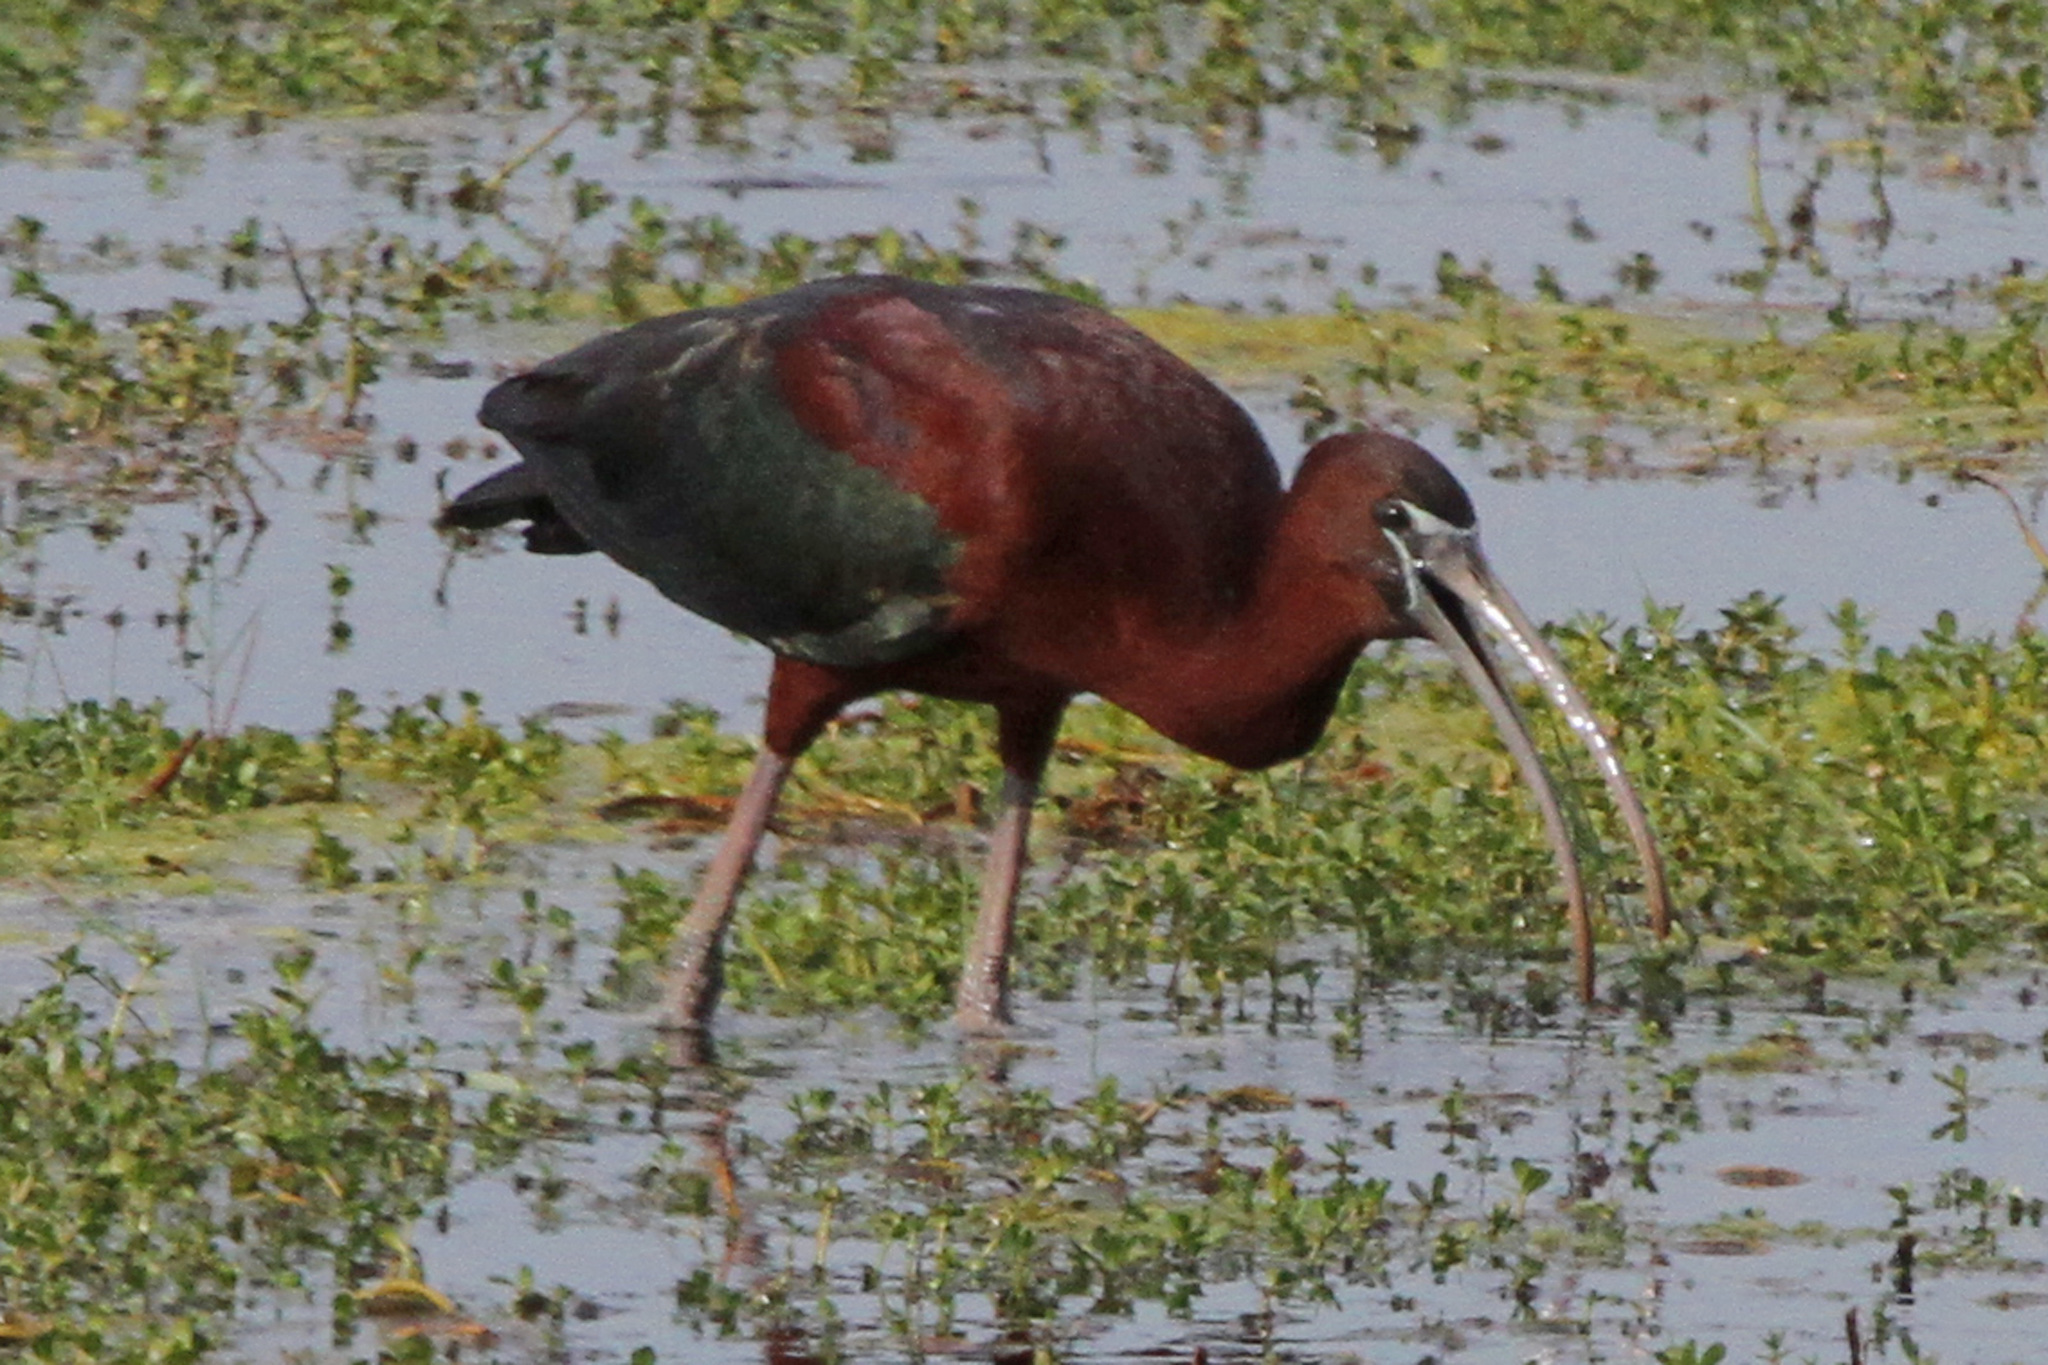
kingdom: Animalia
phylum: Chordata
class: Aves
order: Pelecaniformes
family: Threskiornithidae
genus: Plegadis
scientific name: Plegadis falcinellus
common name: Glossy ibis
